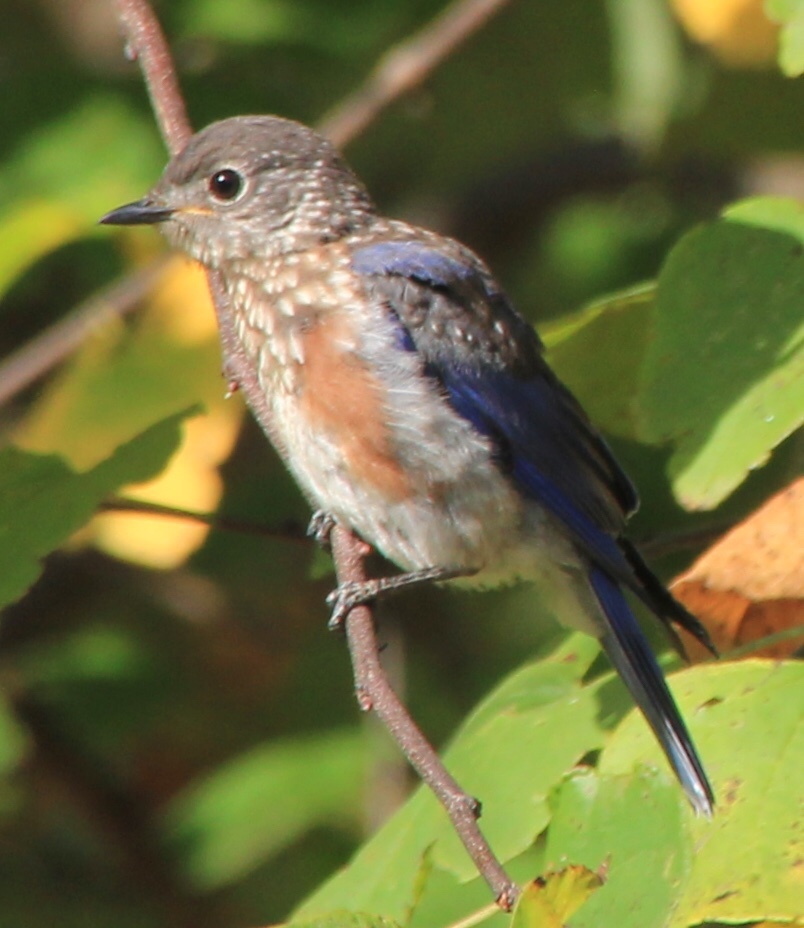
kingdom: Animalia
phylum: Chordata
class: Aves
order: Passeriformes
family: Turdidae
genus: Sialia
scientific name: Sialia sialis
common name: Eastern bluebird
